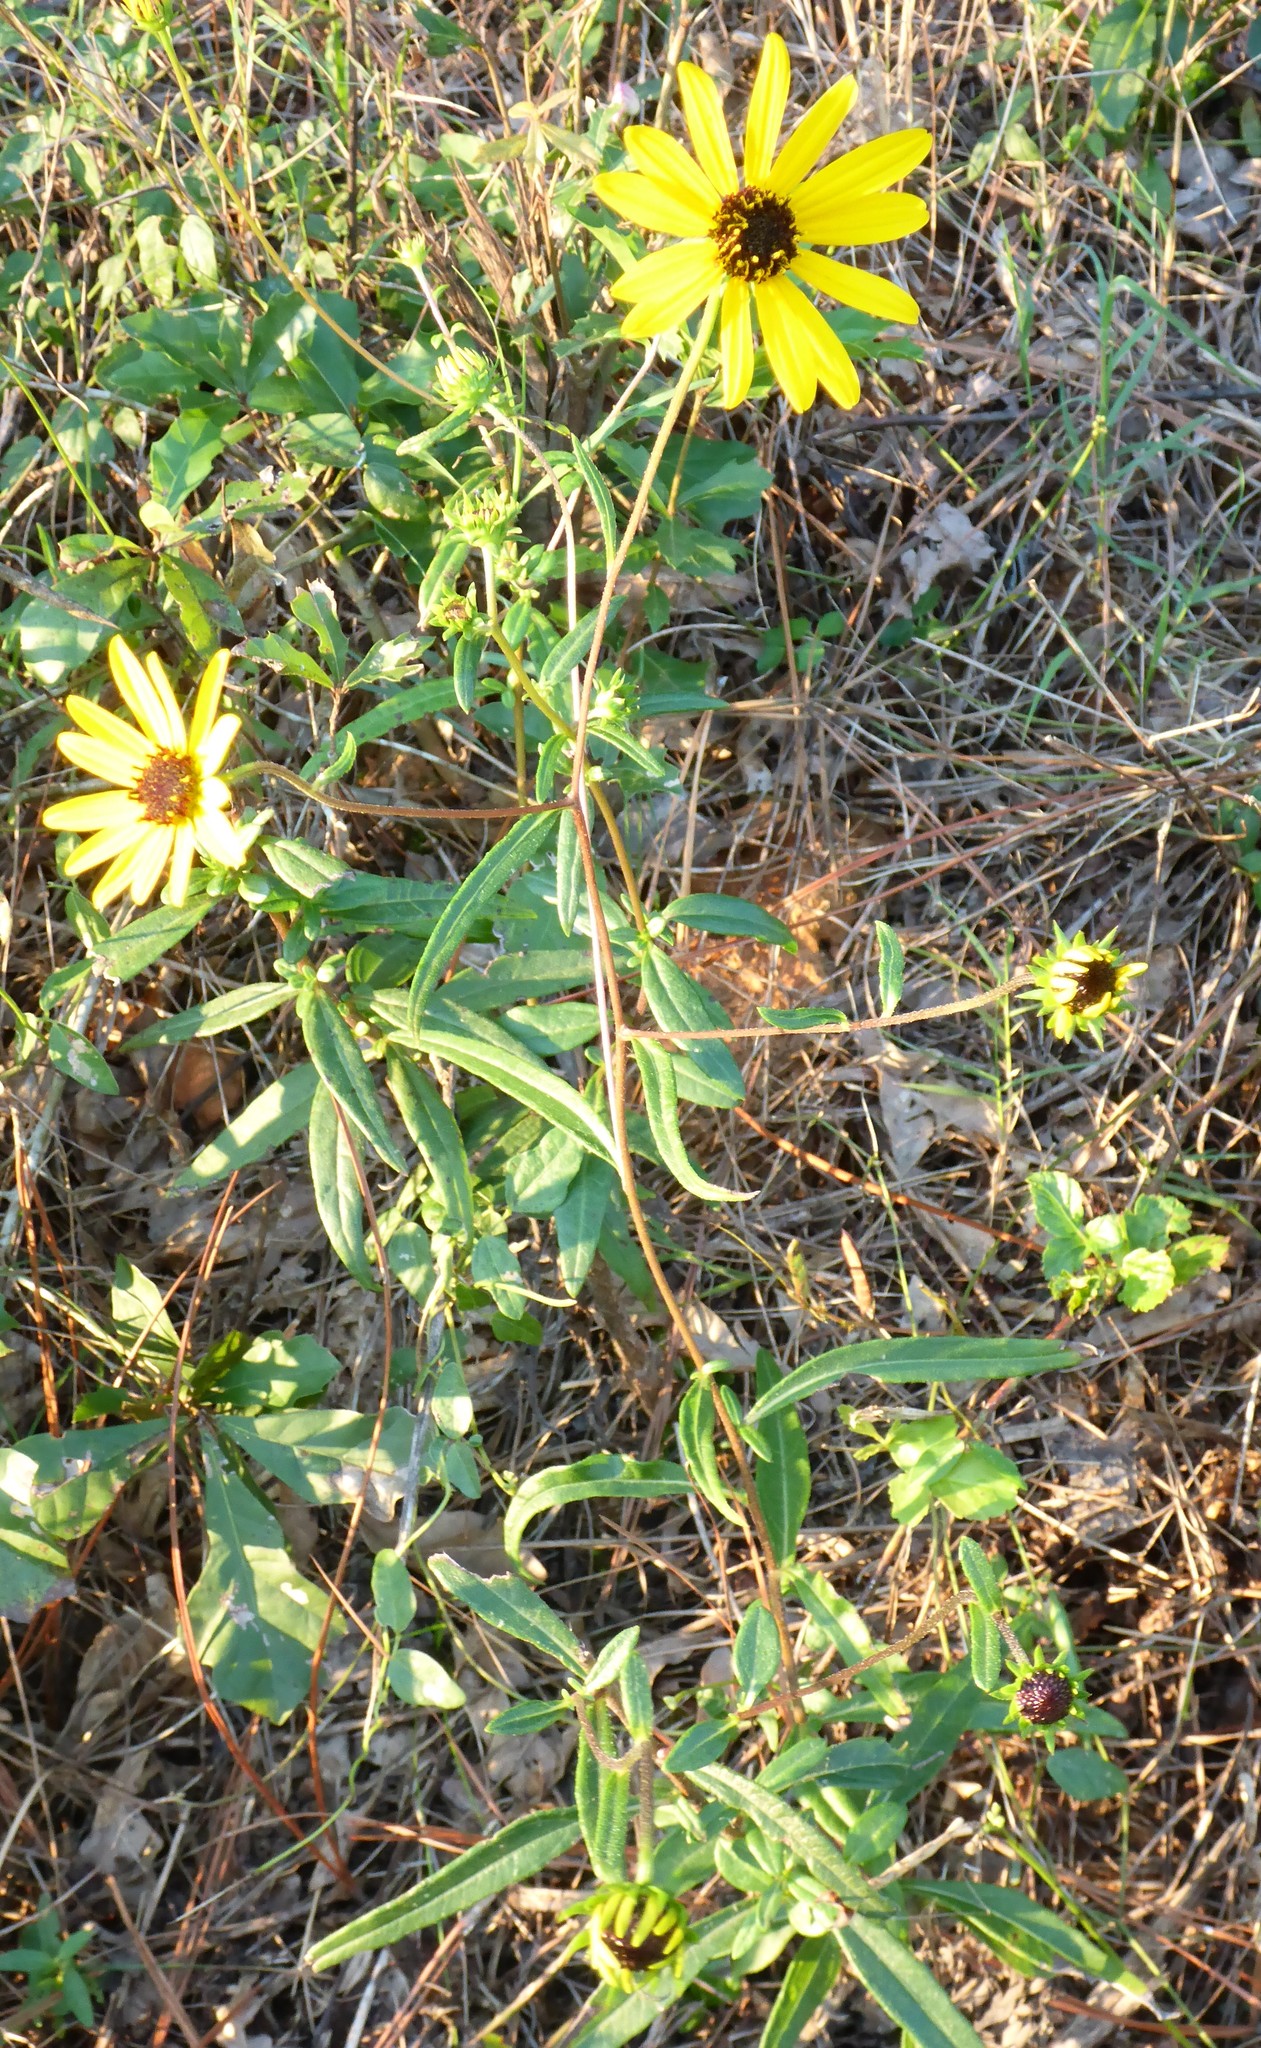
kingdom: Plantae
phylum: Tracheophyta
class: Magnoliopsida
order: Asterales
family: Asteraceae
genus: Helianthus
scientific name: Helianthus angustifolius
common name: Swamp sunflower
